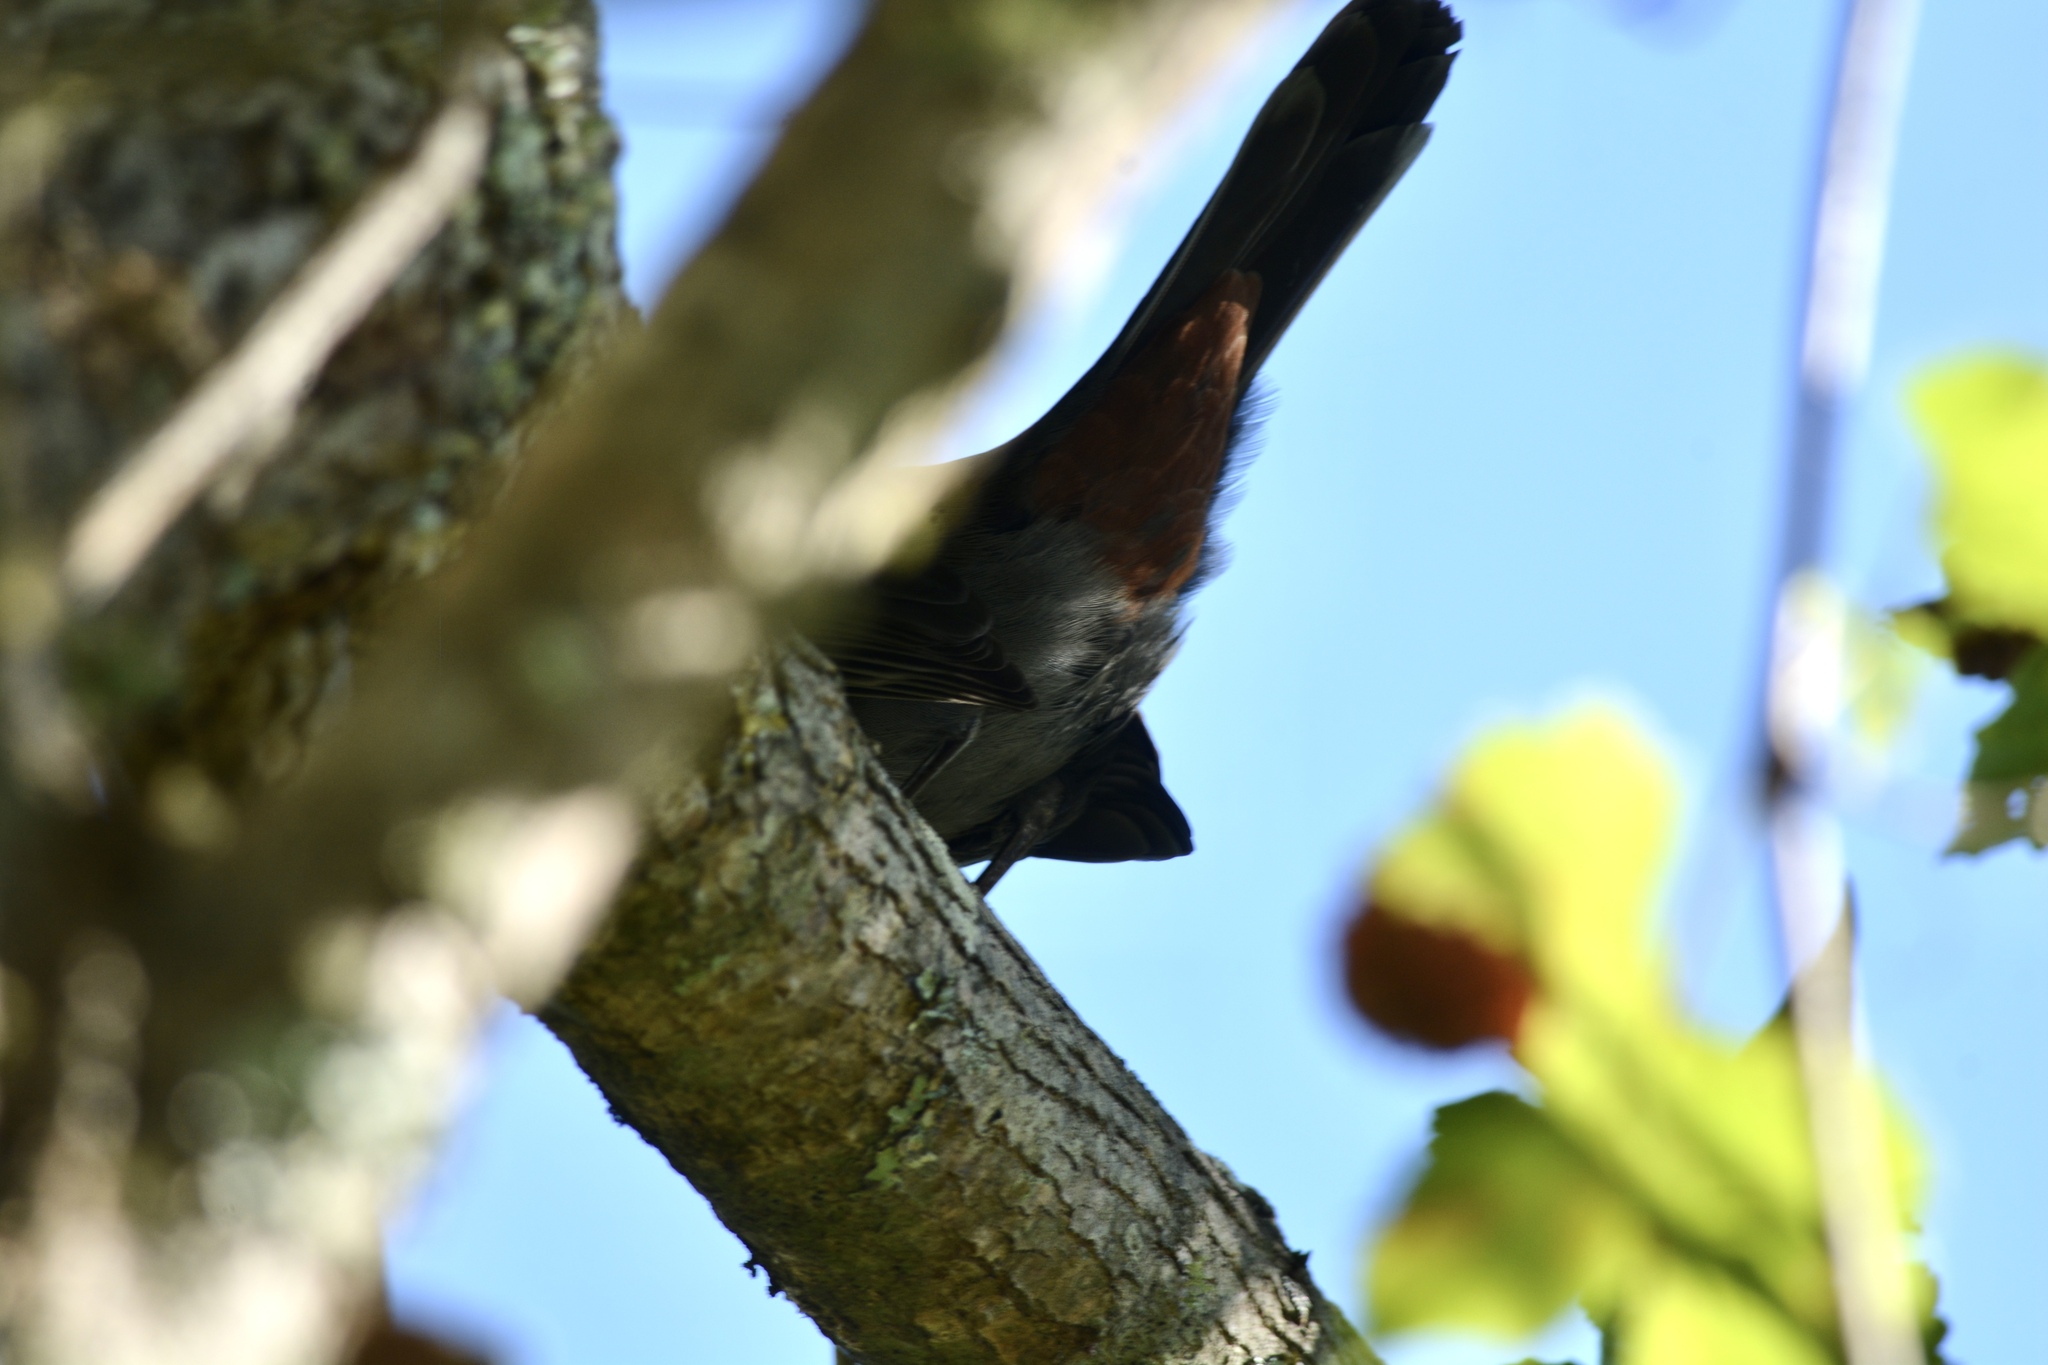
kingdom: Animalia
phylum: Chordata
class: Aves
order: Passeriformes
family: Mimidae
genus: Dumetella
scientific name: Dumetella carolinensis
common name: Gray catbird
